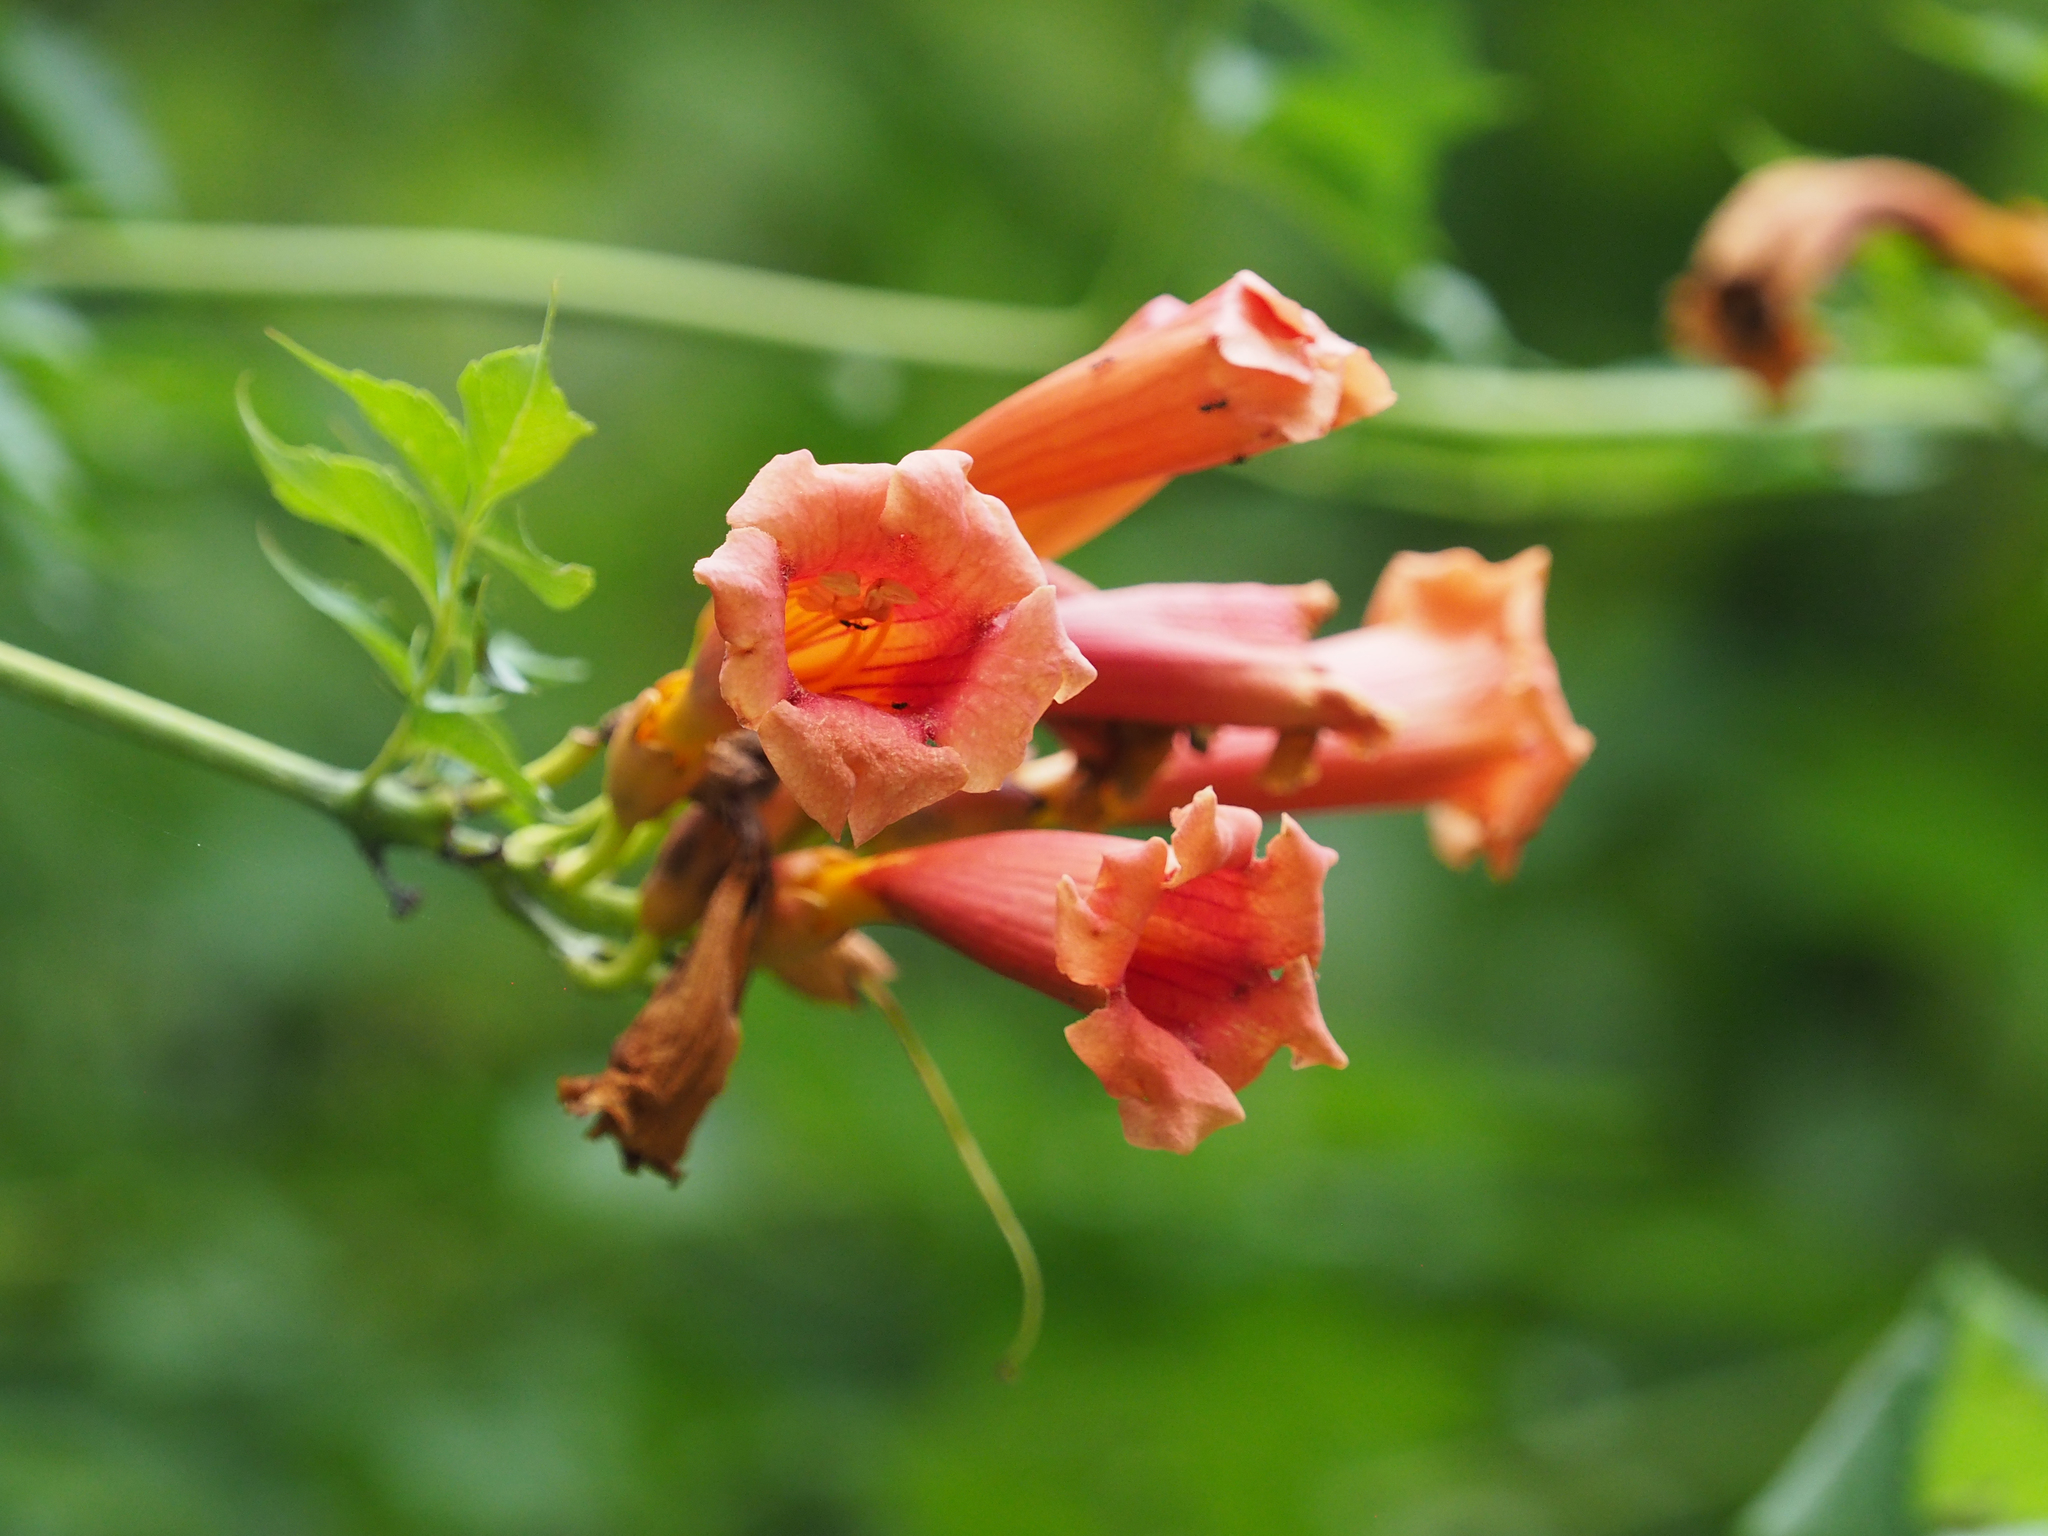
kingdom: Plantae
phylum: Tracheophyta
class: Magnoliopsida
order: Lamiales
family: Bignoniaceae
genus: Campsis
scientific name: Campsis radicans
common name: Trumpet-creeper
